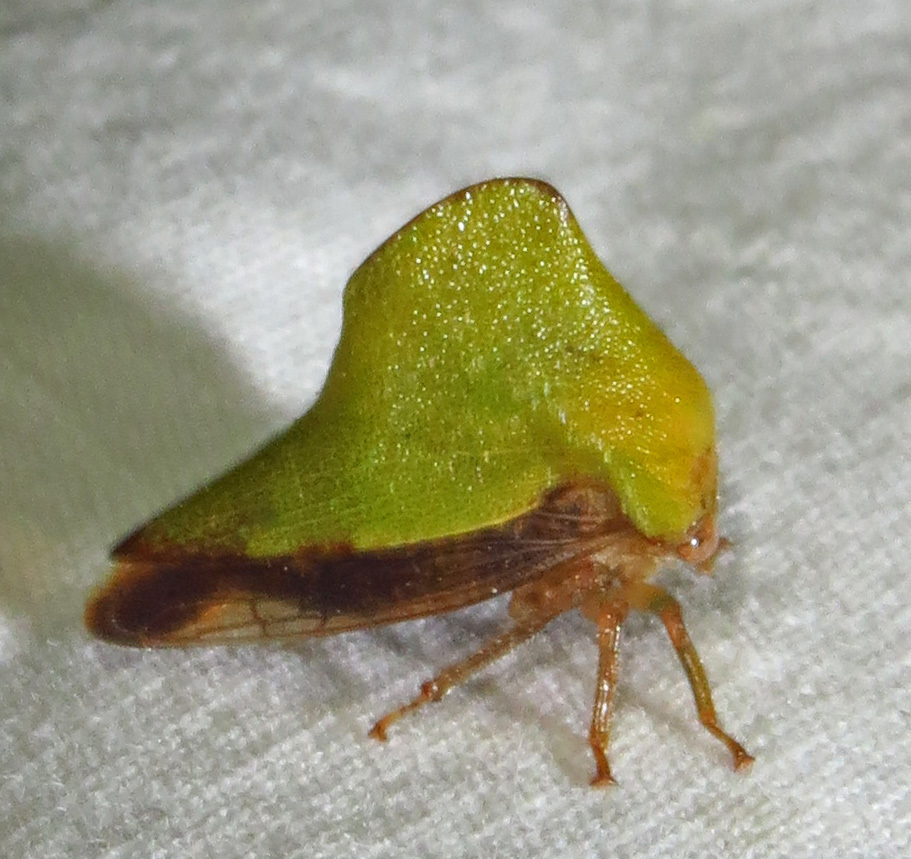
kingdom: Animalia
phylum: Arthropoda
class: Insecta
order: Hemiptera
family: Membracidae
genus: Helonica
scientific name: Helonica excelsa
